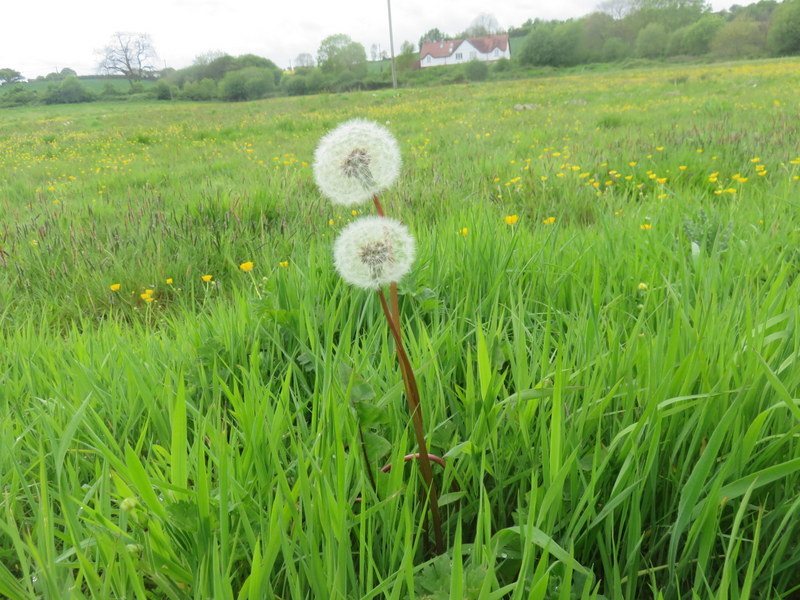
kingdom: Plantae
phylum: Tracheophyta
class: Magnoliopsida
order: Asterales
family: Asteraceae
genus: Taraxacum
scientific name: Taraxacum officinale
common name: Common dandelion
